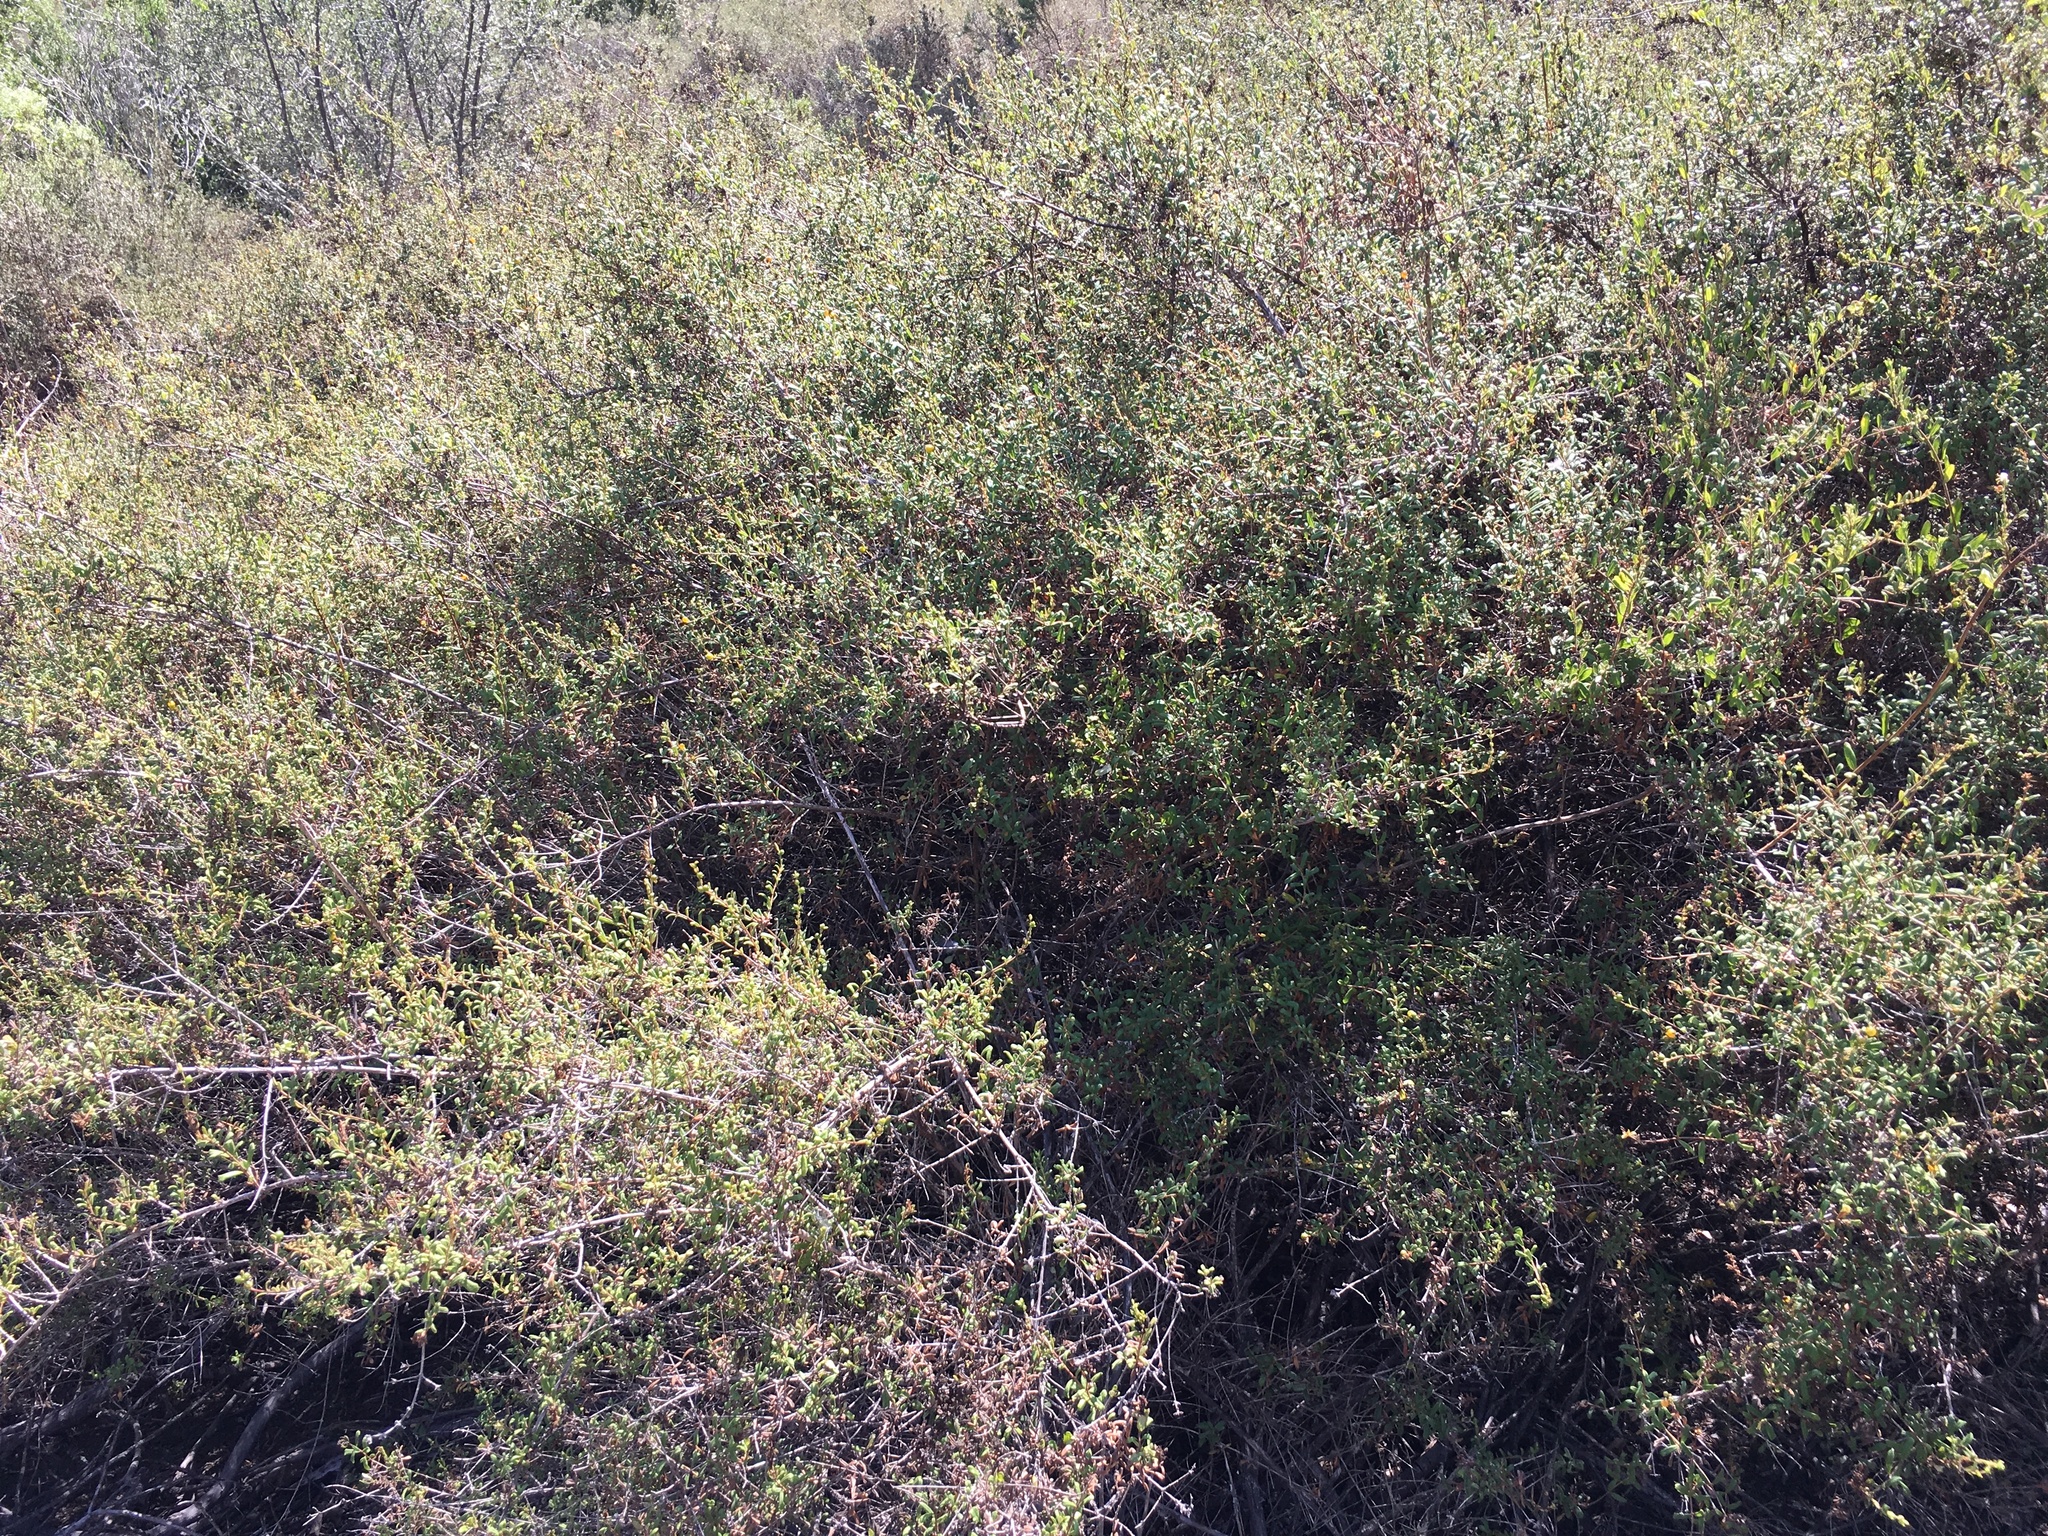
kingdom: Plantae
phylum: Tracheophyta
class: Magnoliopsida
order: Dipsacales
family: Caprifoliaceae
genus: Lonicera
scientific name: Lonicera subspicata
